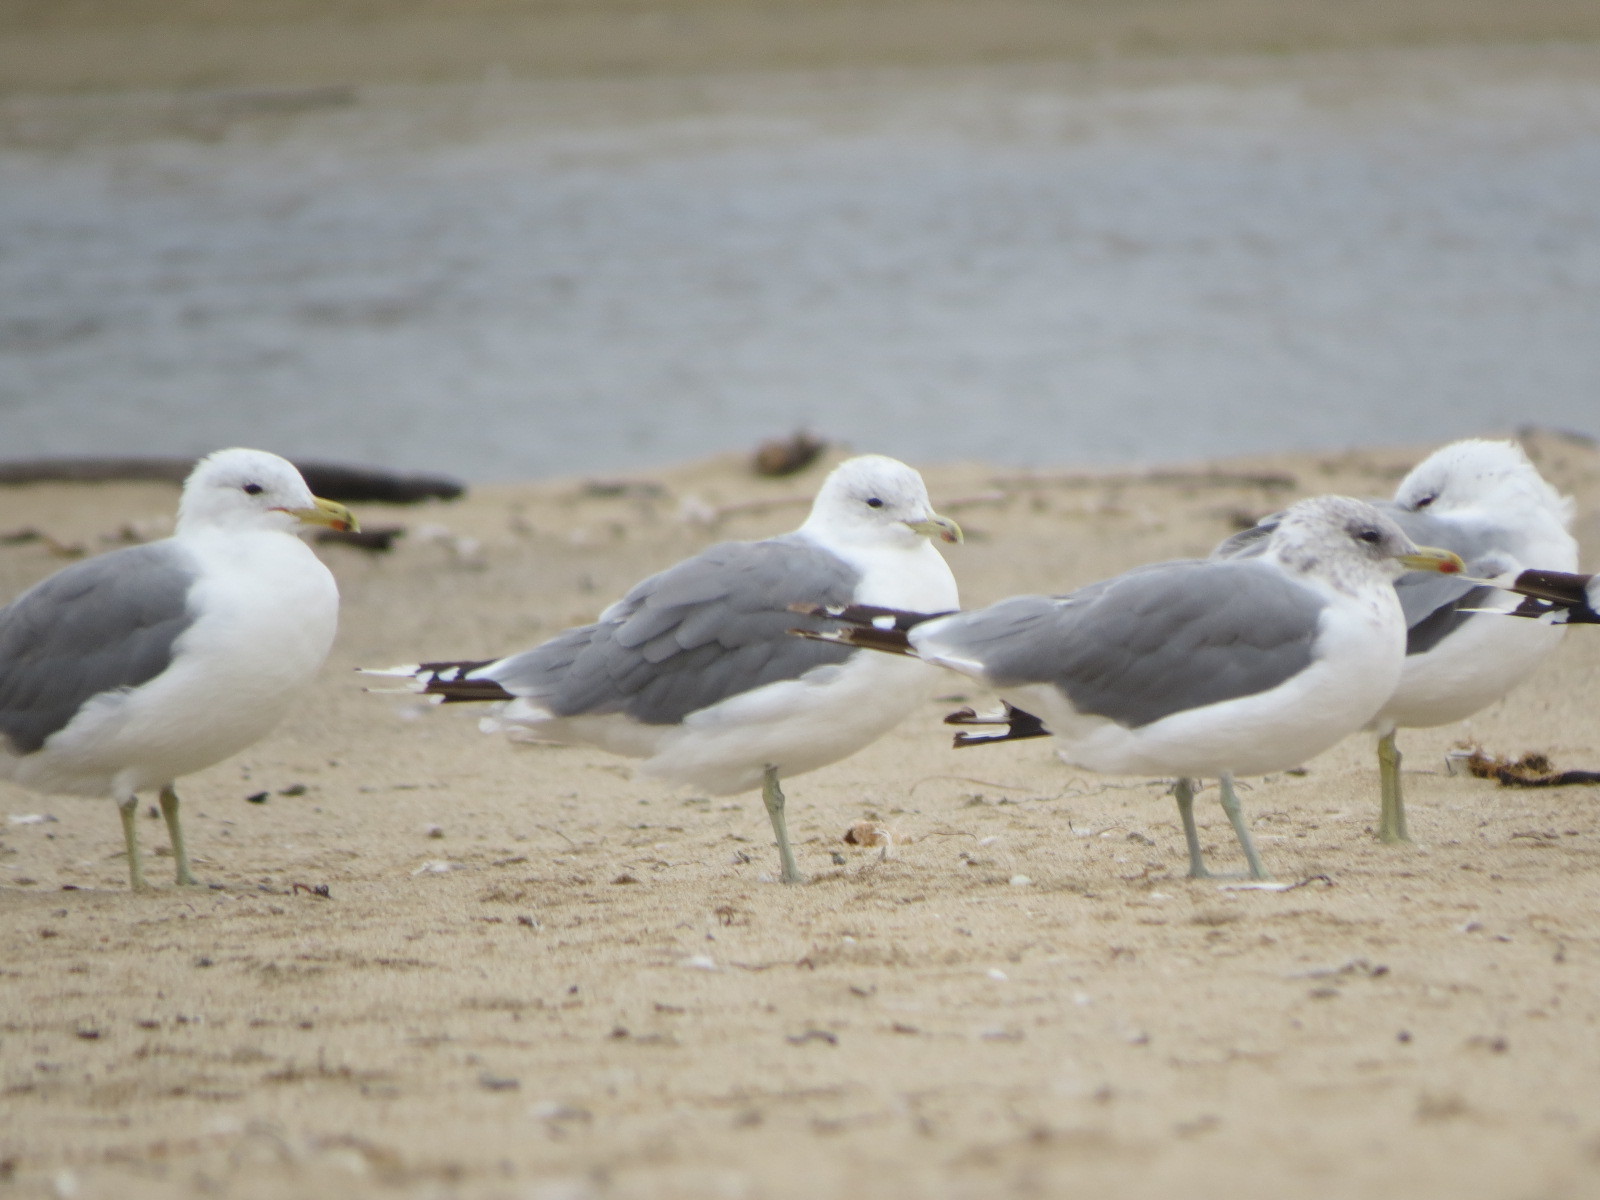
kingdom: Animalia
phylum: Chordata
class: Aves
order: Charadriiformes
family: Laridae
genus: Larus
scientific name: Larus californicus
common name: California gull
